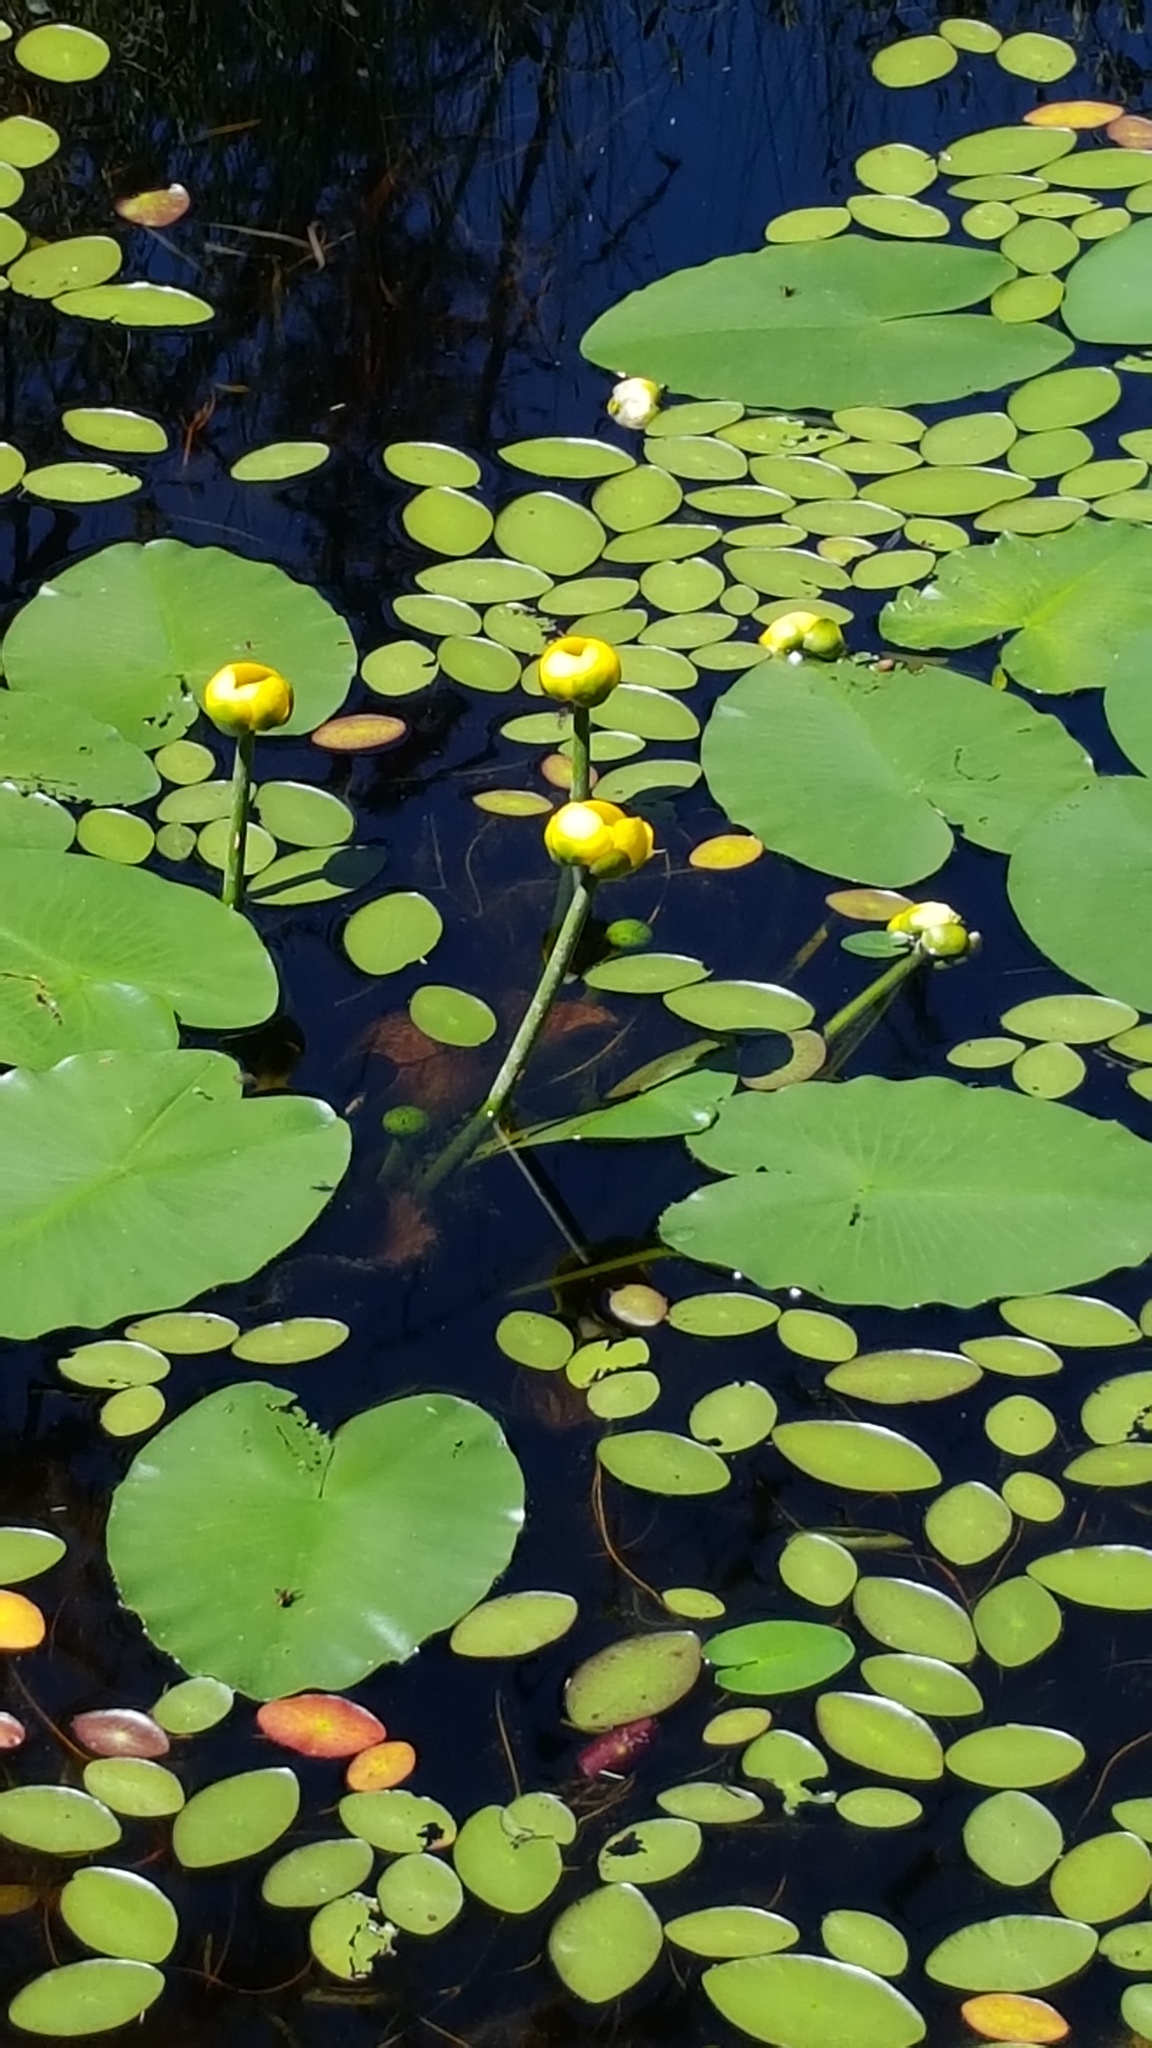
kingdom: Plantae
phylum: Tracheophyta
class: Magnoliopsida
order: Nymphaeales
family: Nymphaeaceae
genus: Nuphar
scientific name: Nuphar variegata
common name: Beaver-root
